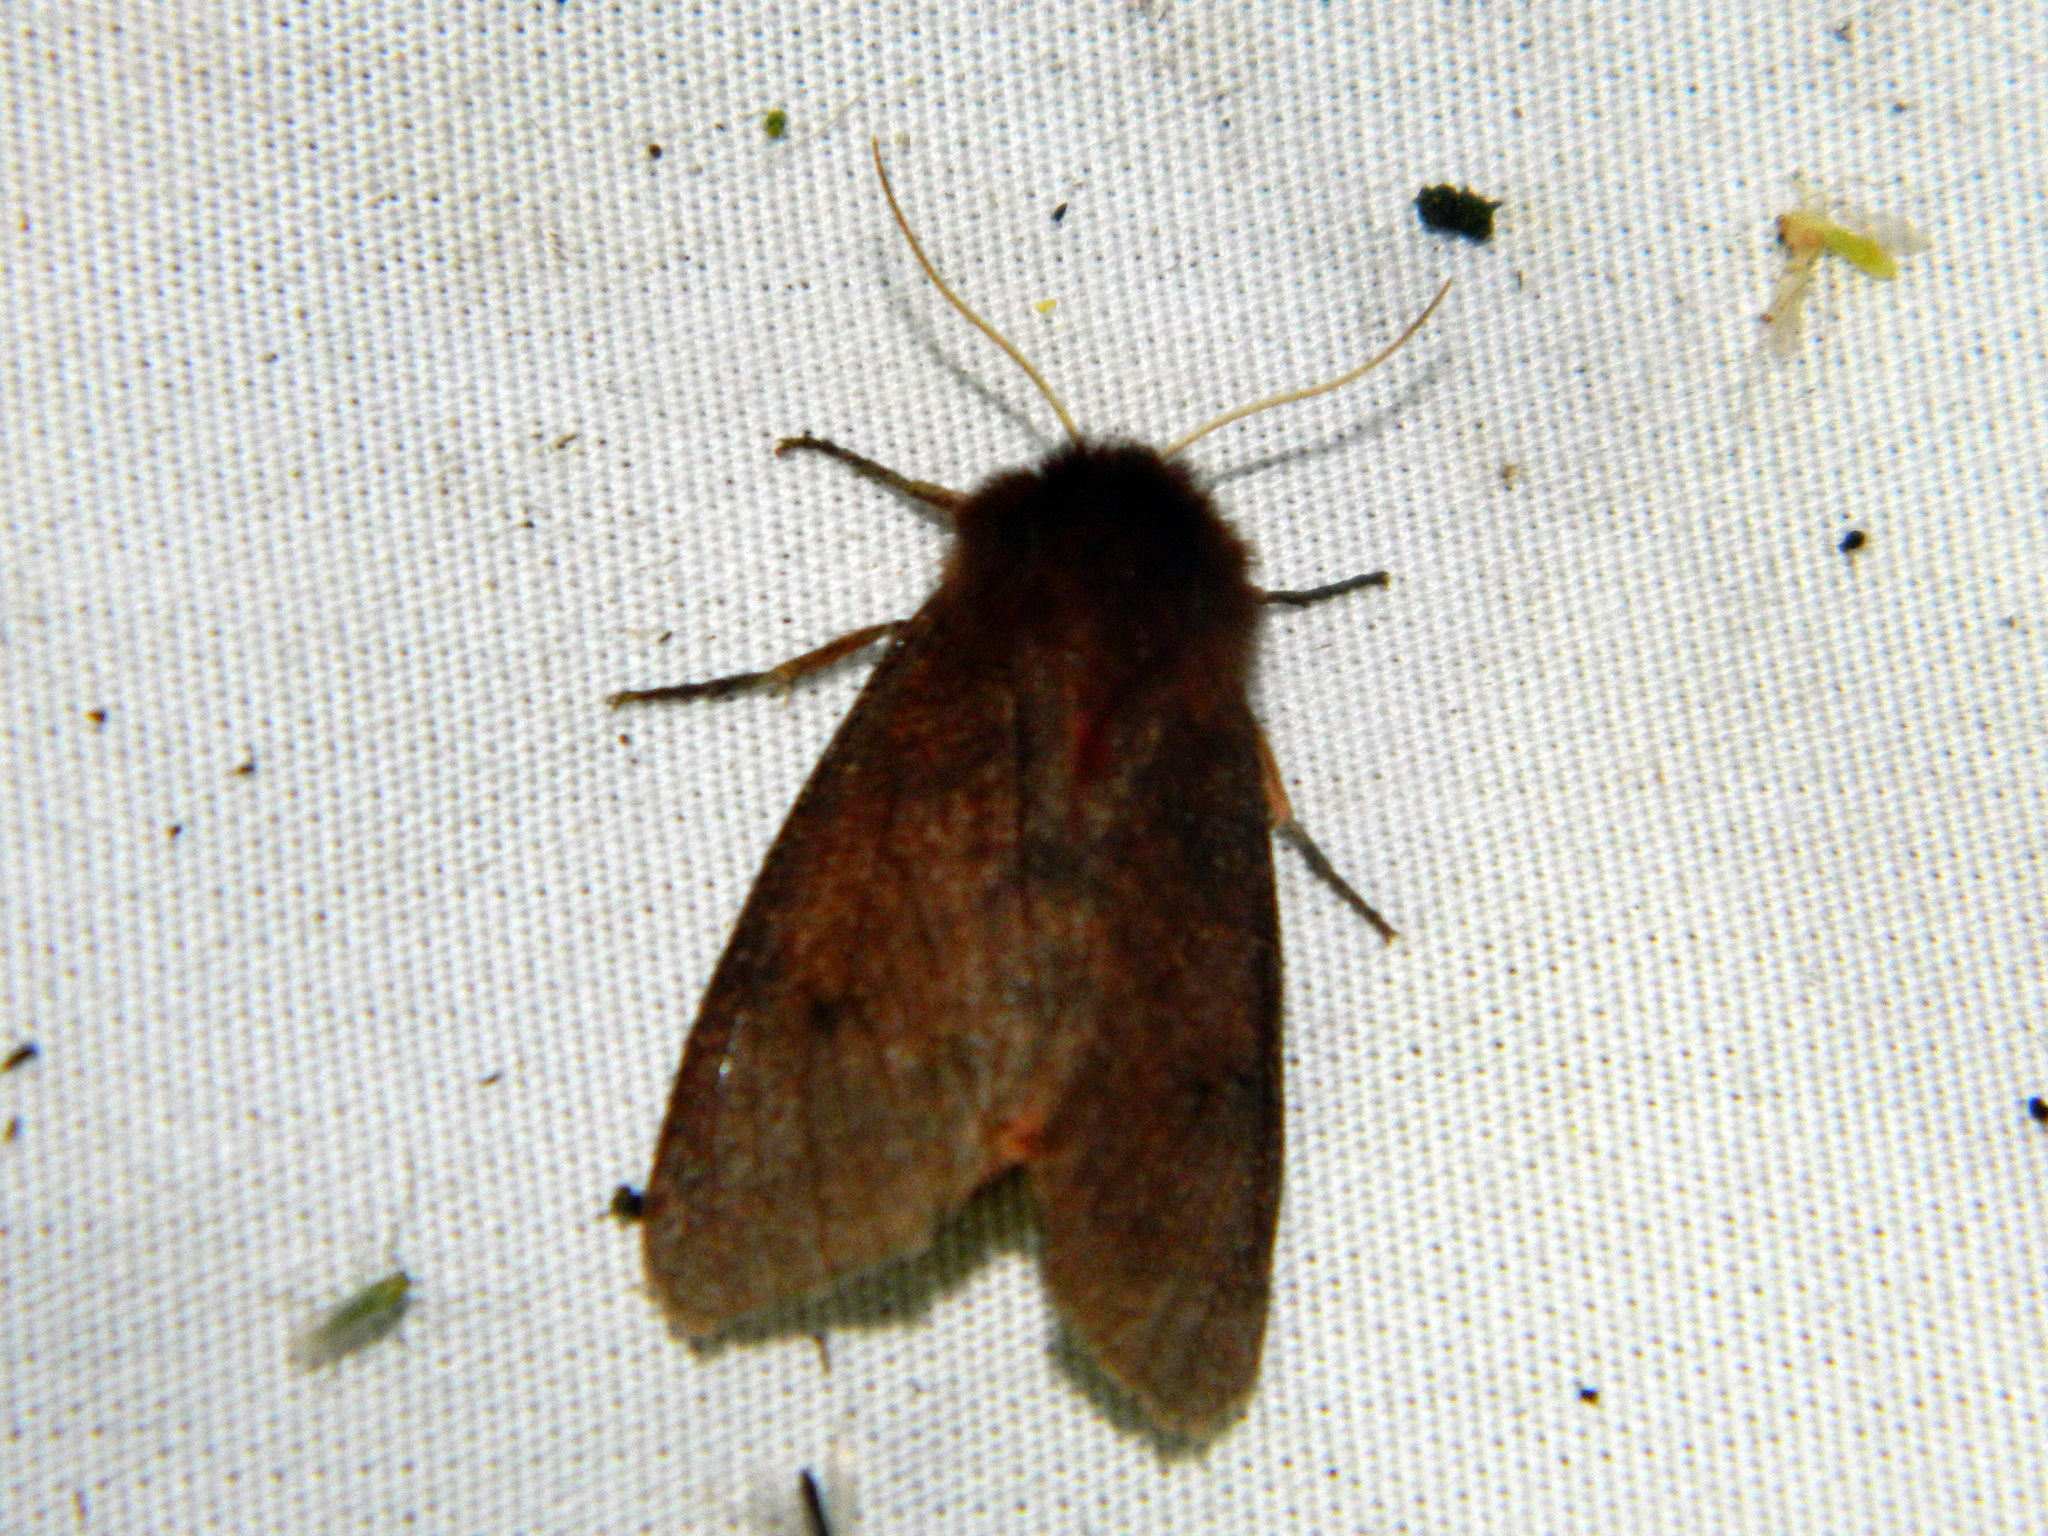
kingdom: Animalia
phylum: Arthropoda
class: Insecta
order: Lepidoptera
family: Erebidae
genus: Phragmatobia
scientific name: Phragmatobia assimilans
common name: Large ruby tiger moth
